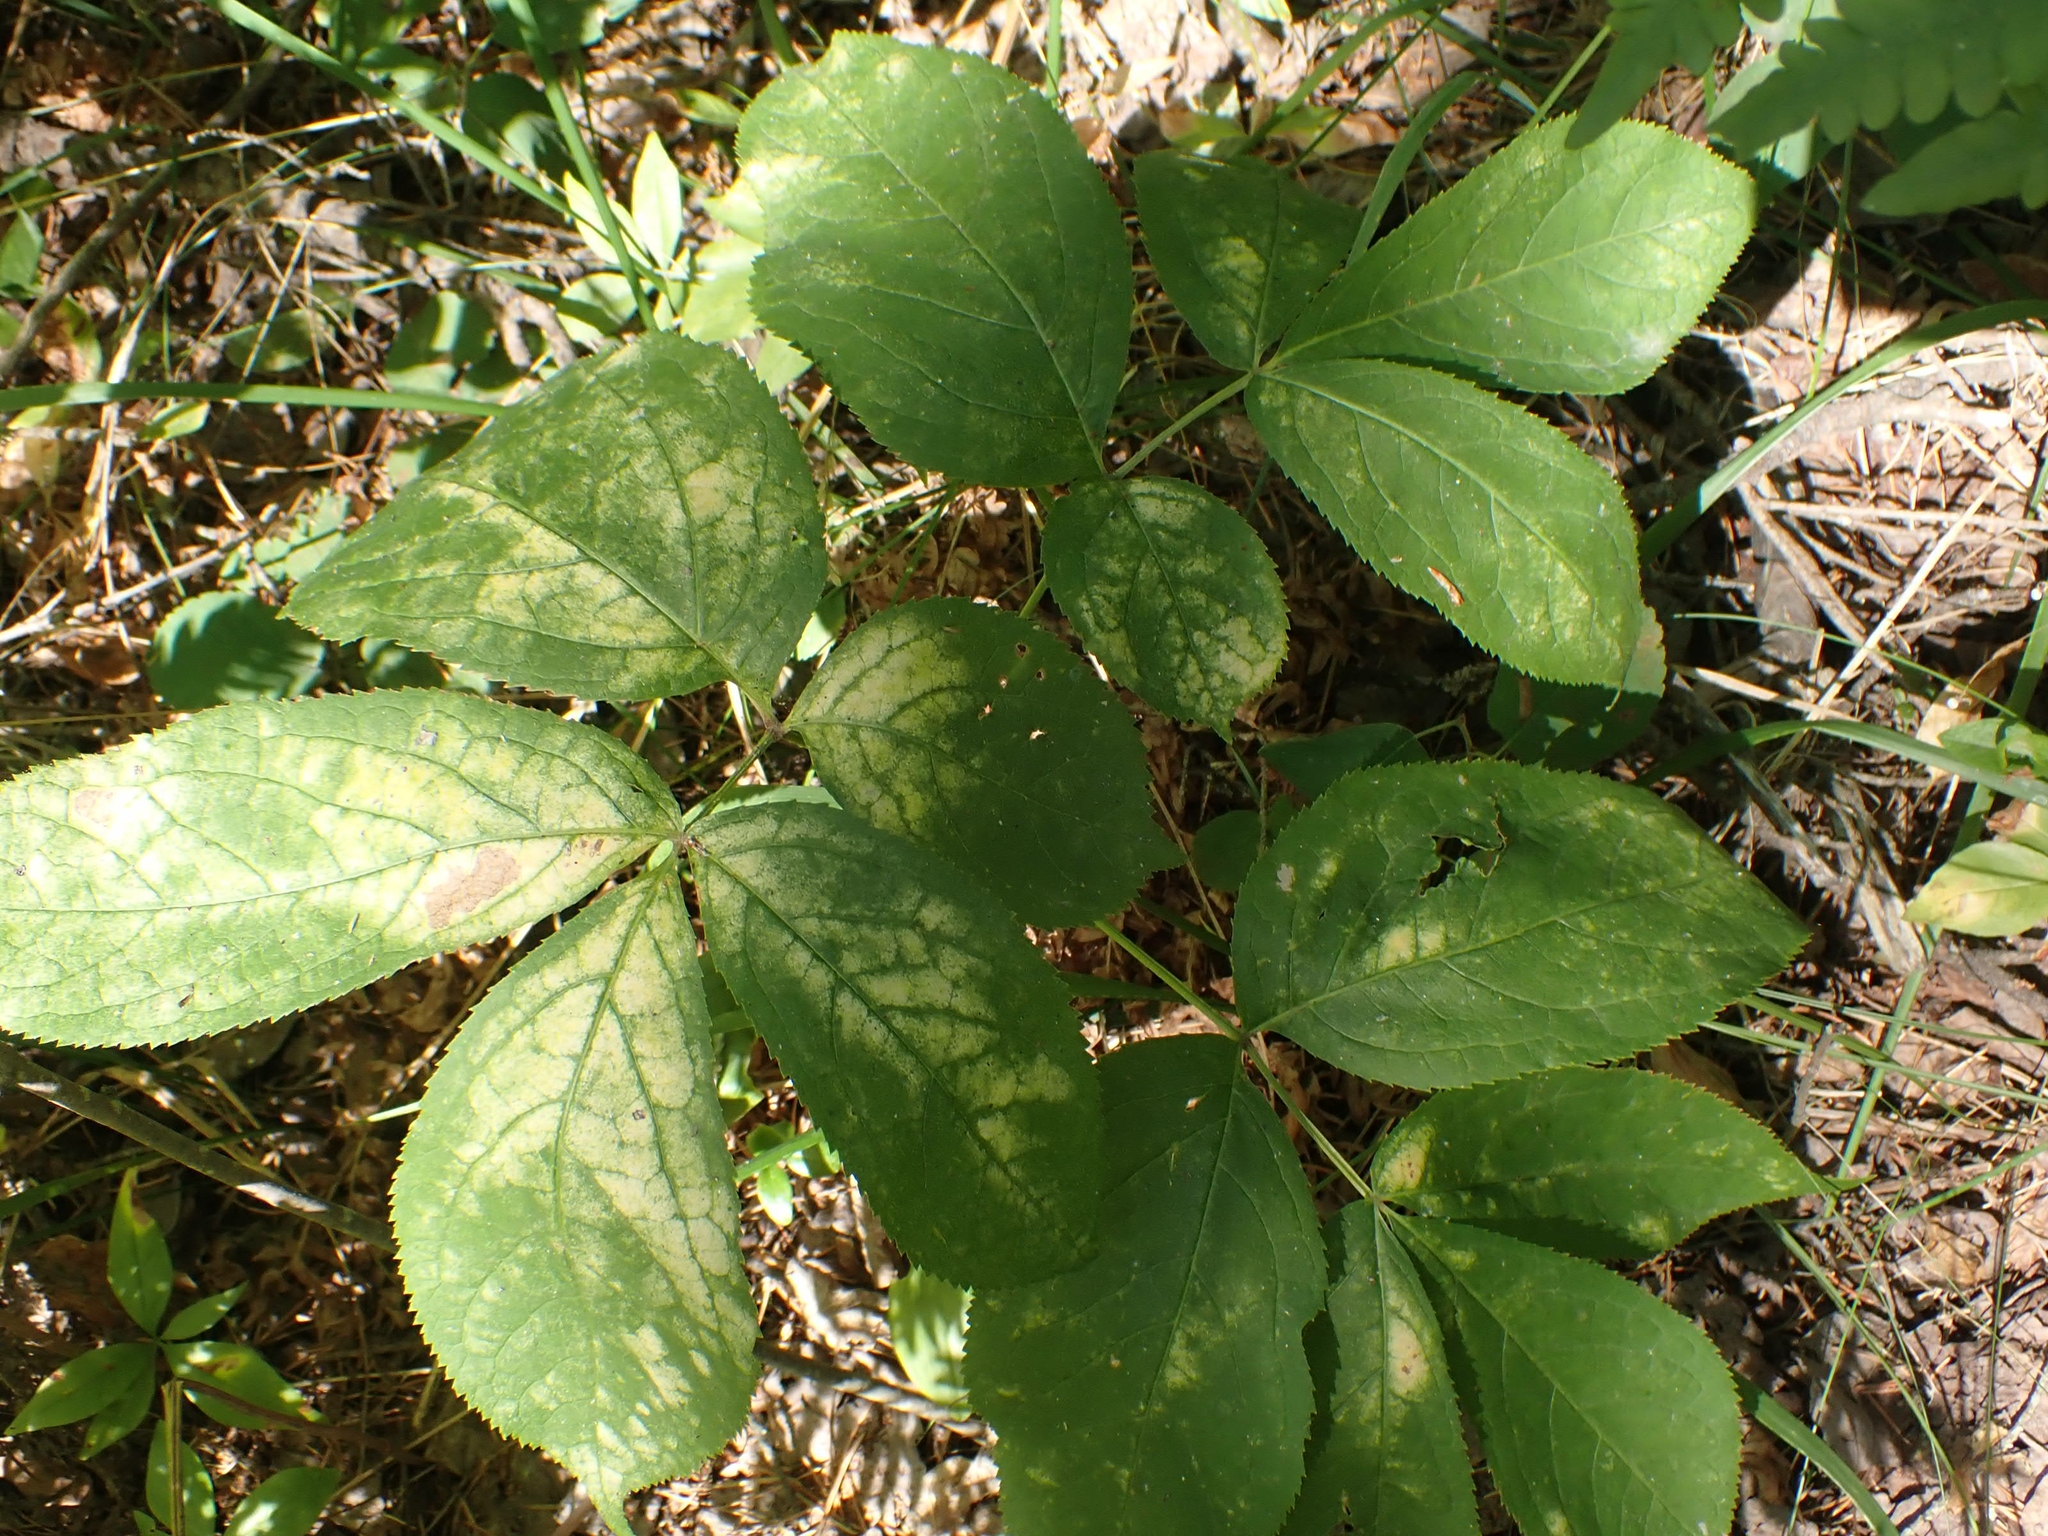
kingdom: Plantae
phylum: Tracheophyta
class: Magnoliopsida
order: Apiales
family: Araliaceae
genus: Aralia
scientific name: Aralia nudicaulis
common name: Wild sarsaparilla
